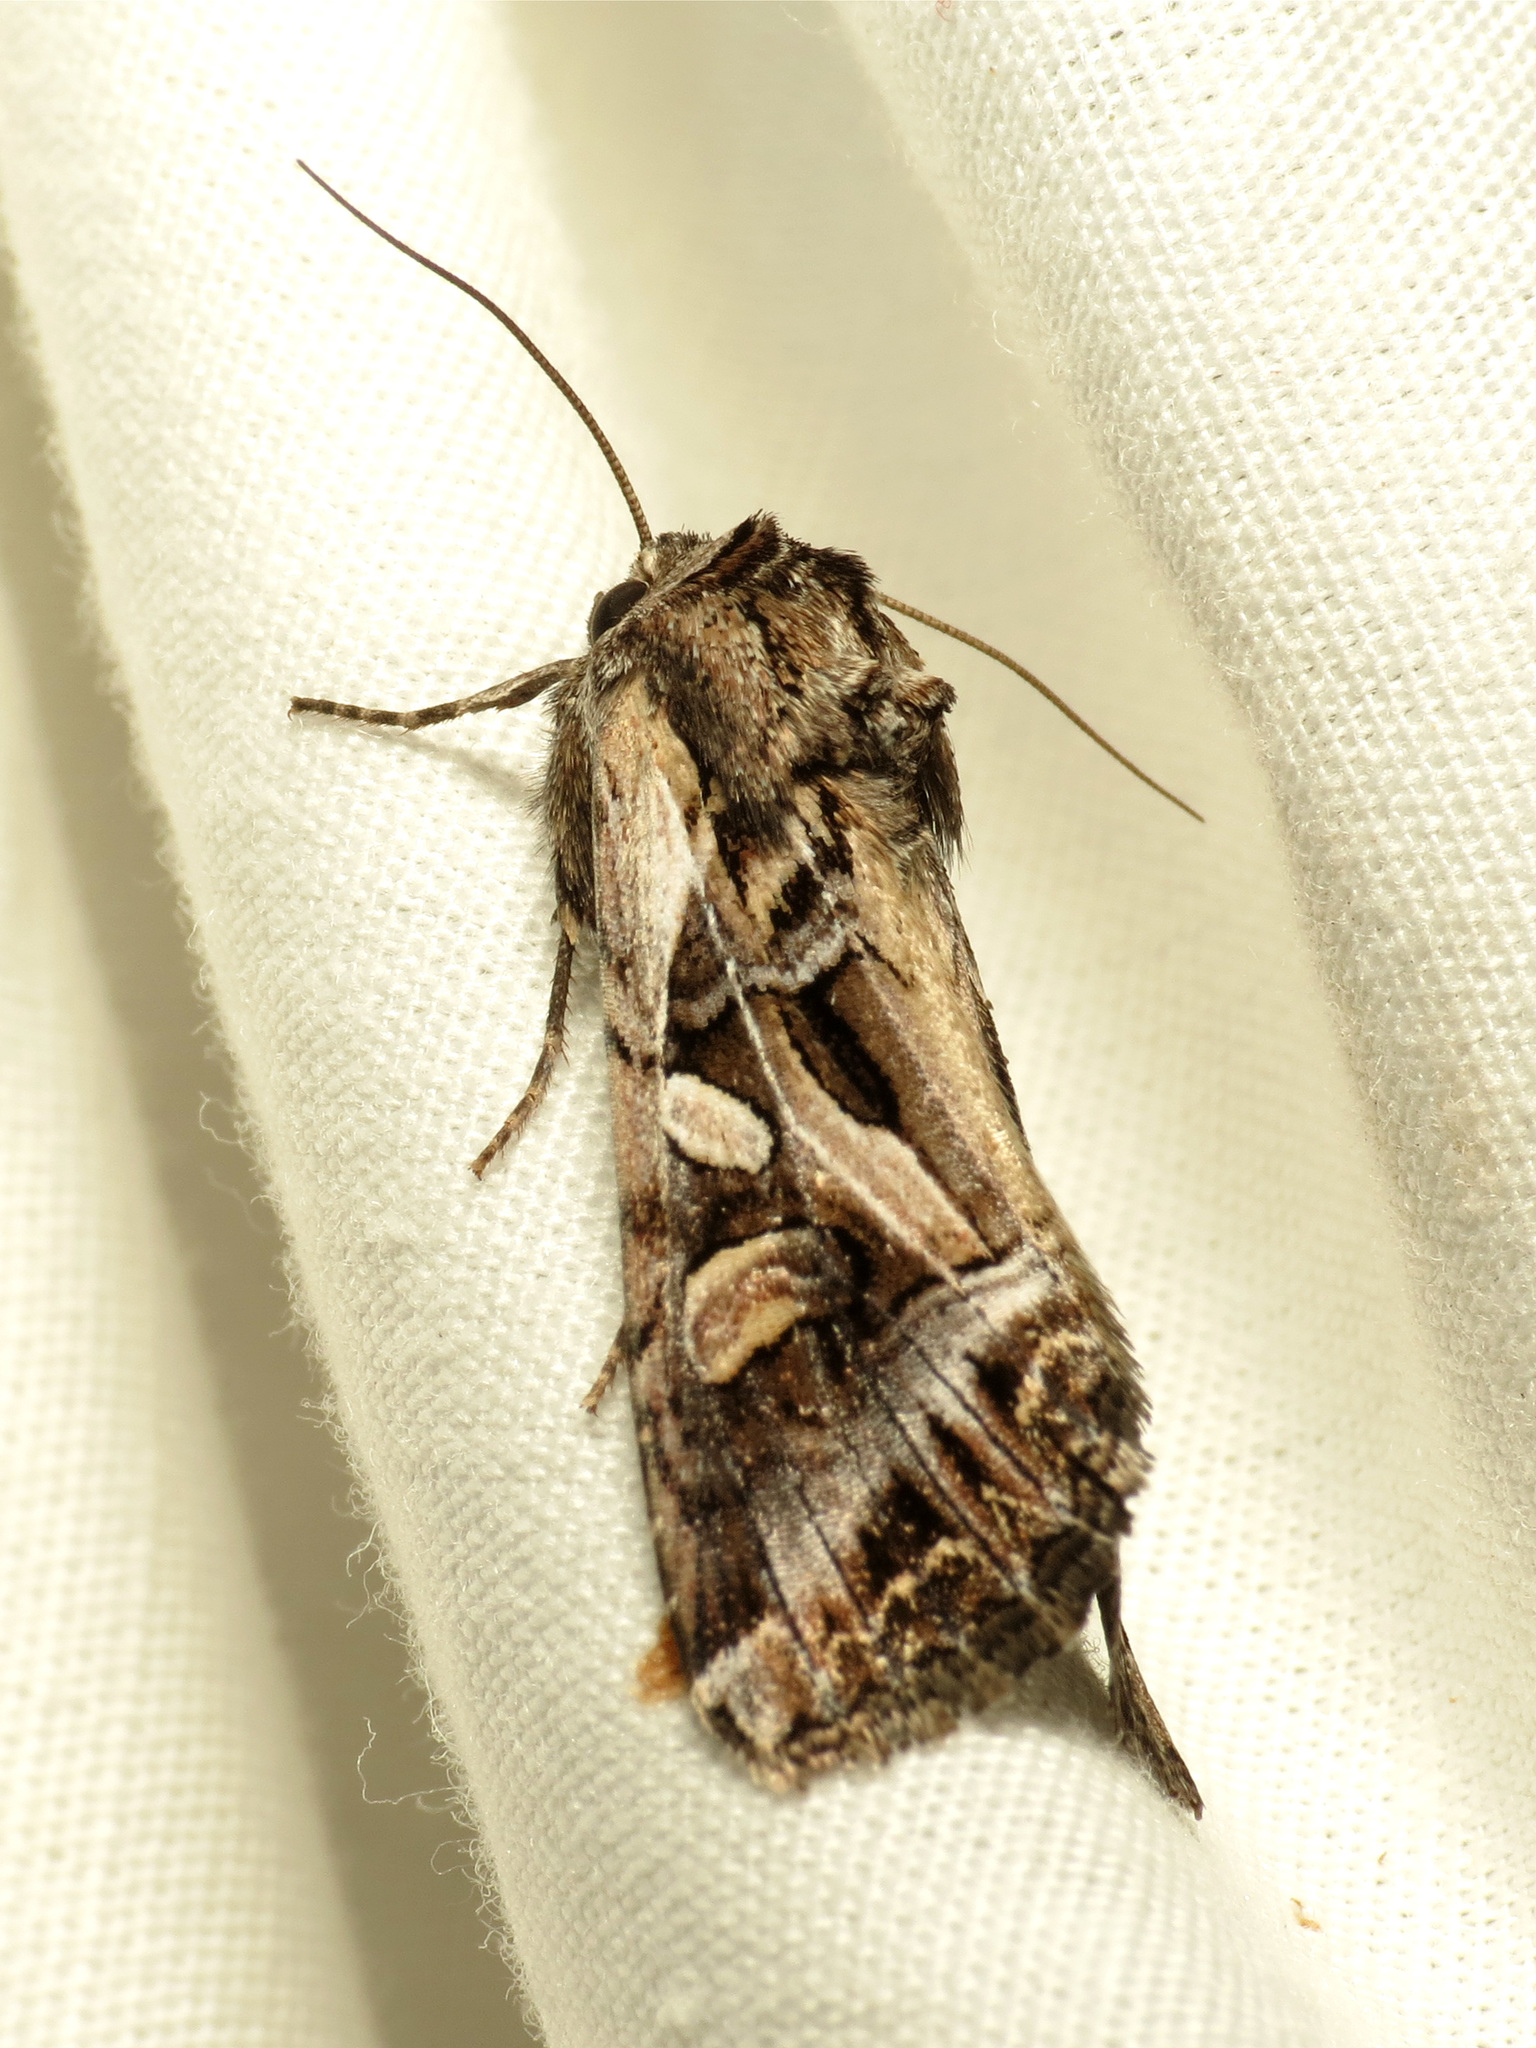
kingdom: Animalia
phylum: Arthropoda
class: Insecta
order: Lepidoptera
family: Noctuidae
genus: Trichordestra
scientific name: Trichordestra prodeniformis
